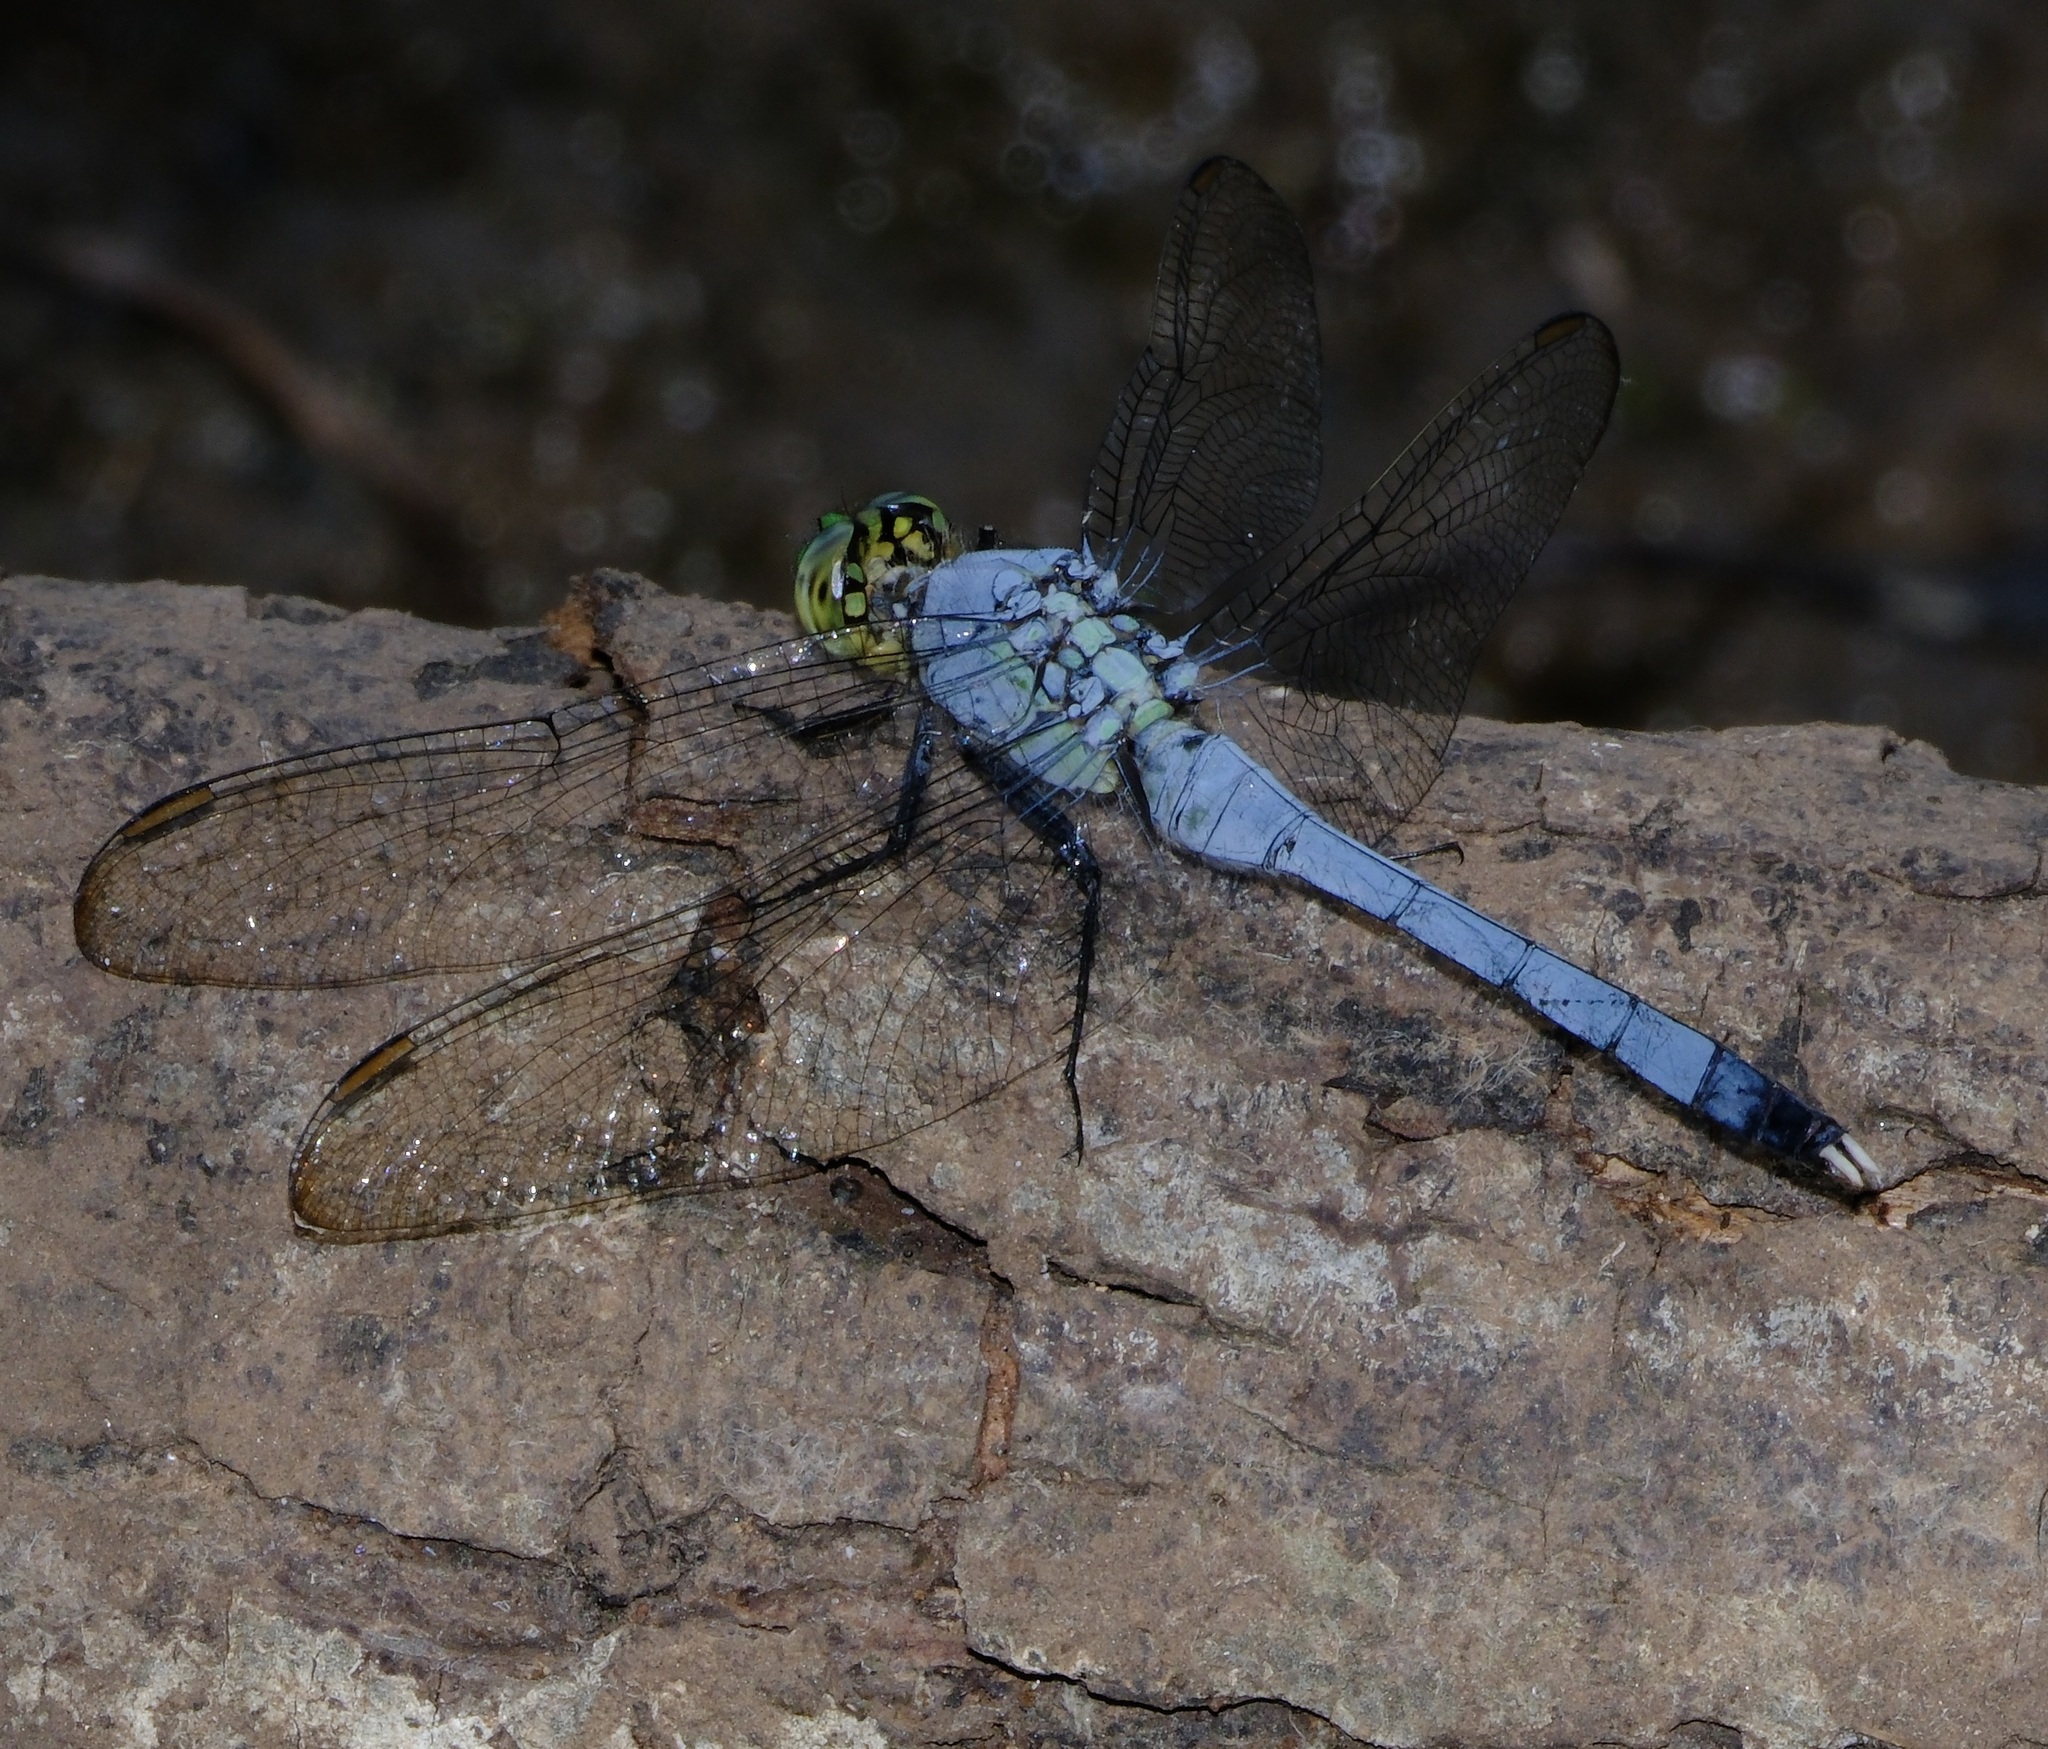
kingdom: Animalia
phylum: Arthropoda
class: Insecta
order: Odonata
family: Libellulidae
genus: Erythemis
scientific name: Erythemis simplicicollis
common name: Eastern pondhawk
